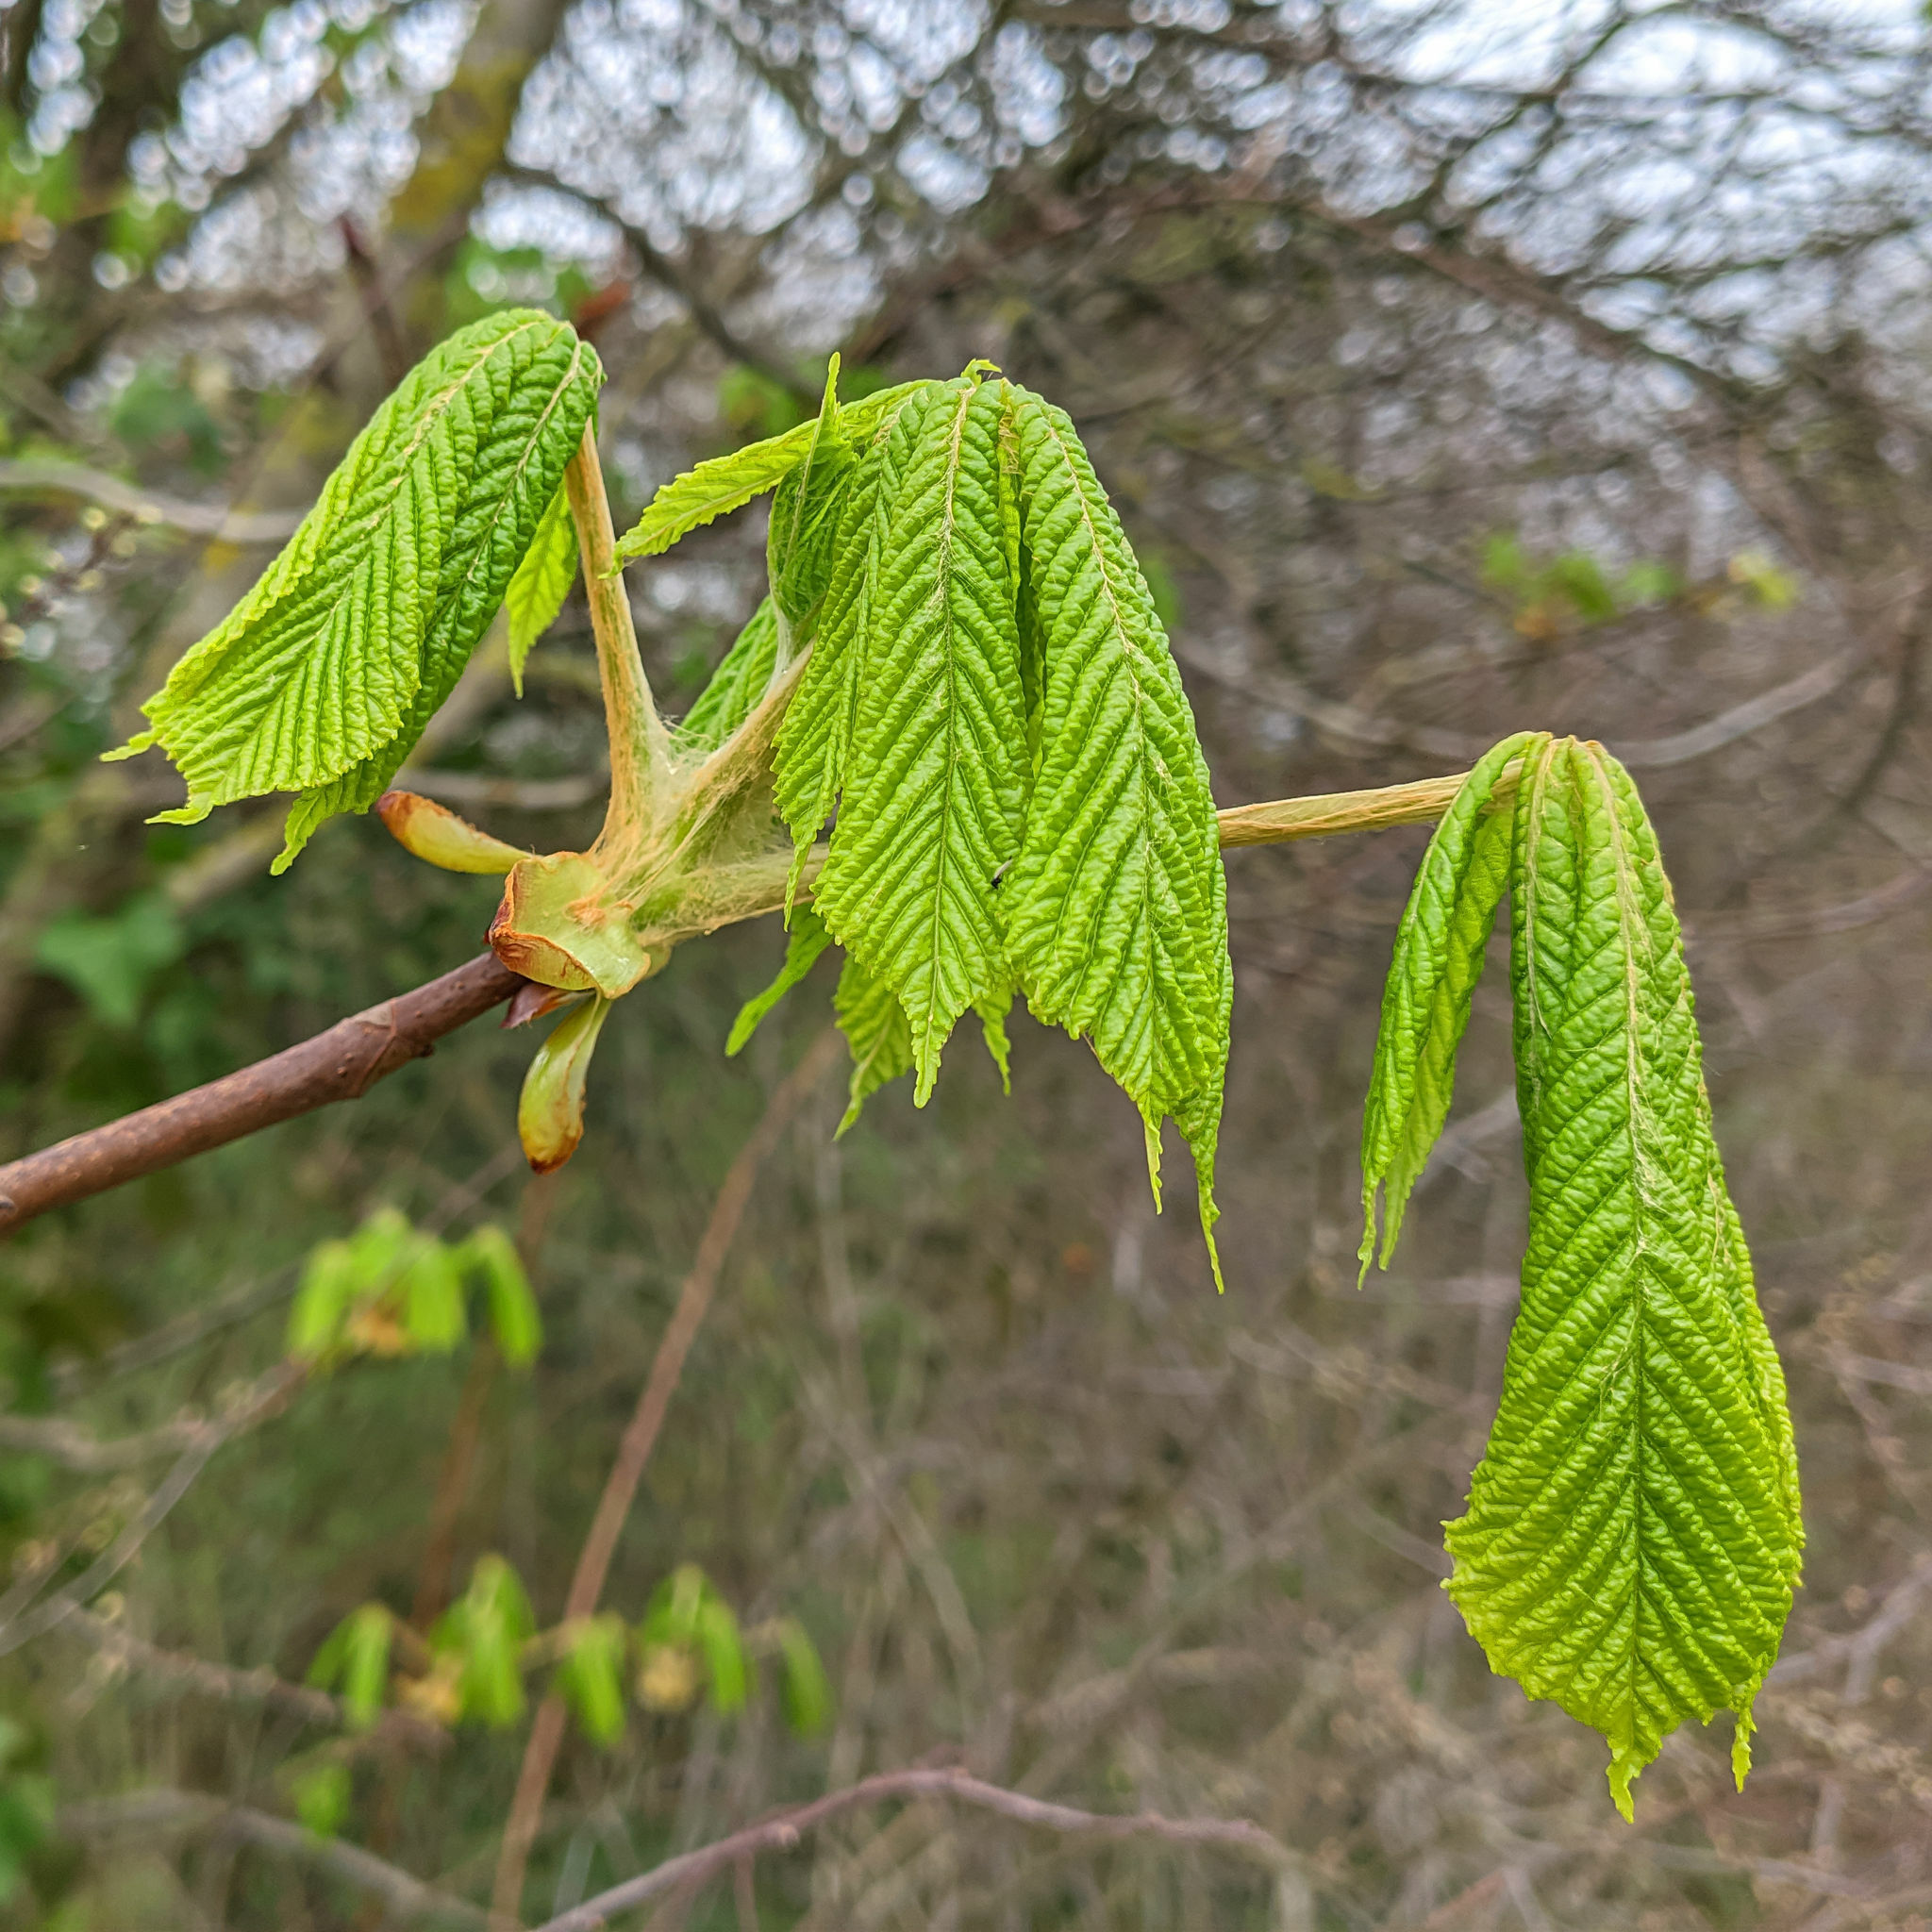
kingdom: Plantae
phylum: Tracheophyta
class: Magnoliopsida
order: Sapindales
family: Sapindaceae
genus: Aesculus
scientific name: Aesculus hippocastanum
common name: Horse-chestnut
